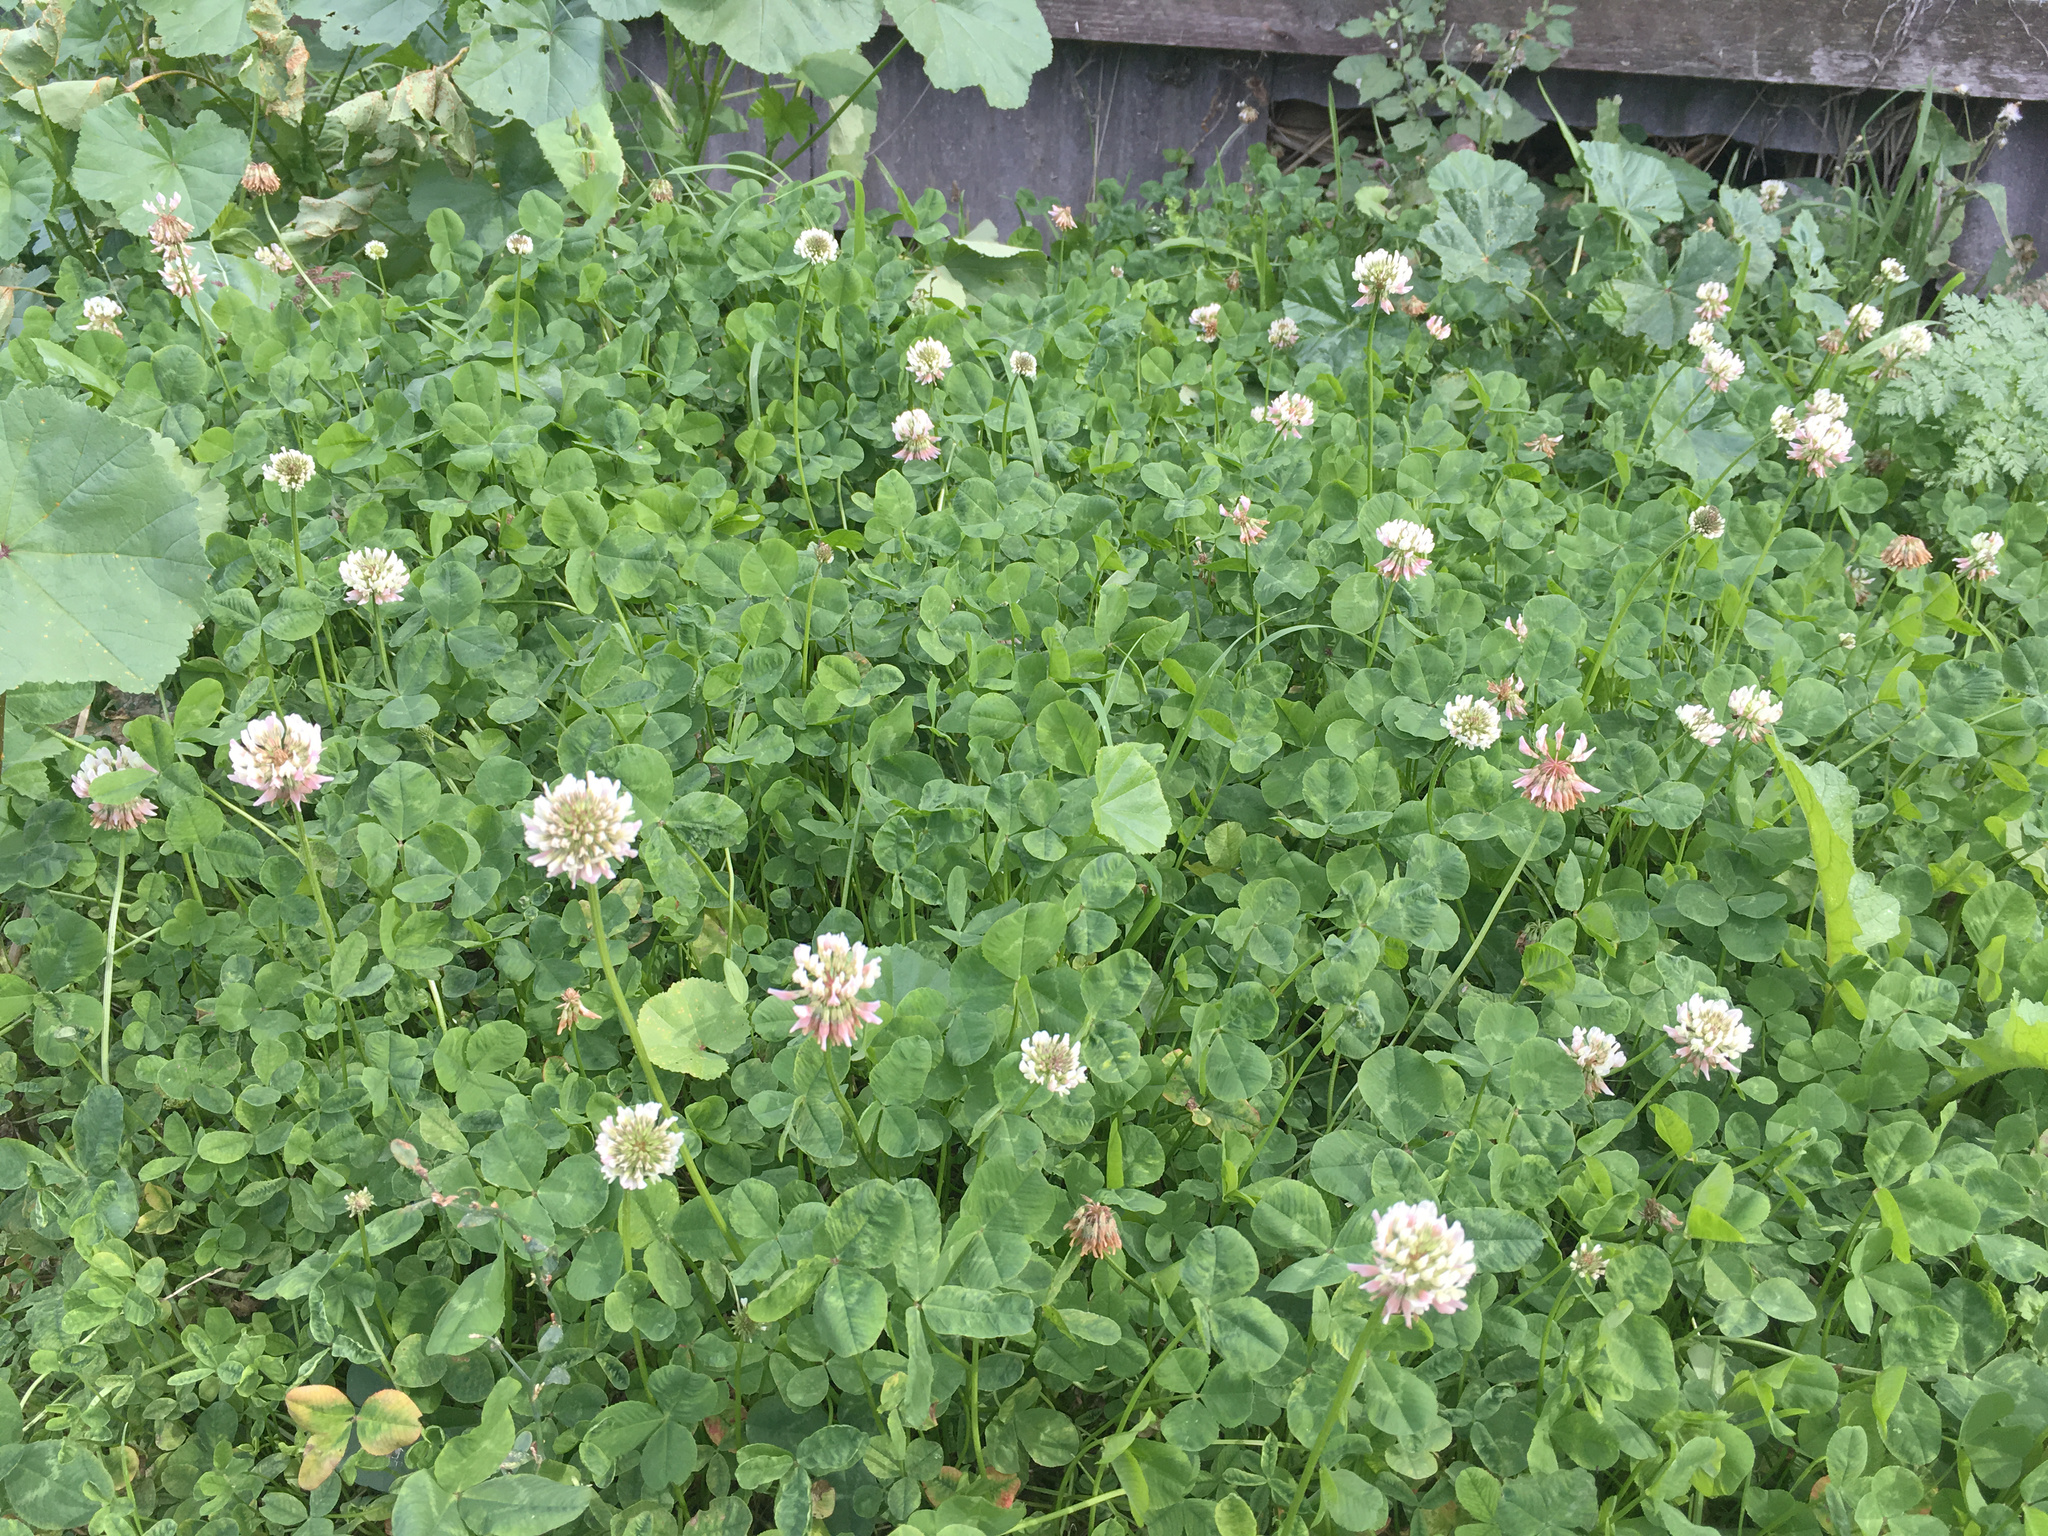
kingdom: Plantae
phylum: Tracheophyta
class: Magnoliopsida
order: Fabales
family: Fabaceae
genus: Trifolium
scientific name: Trifolium repens
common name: White clover
